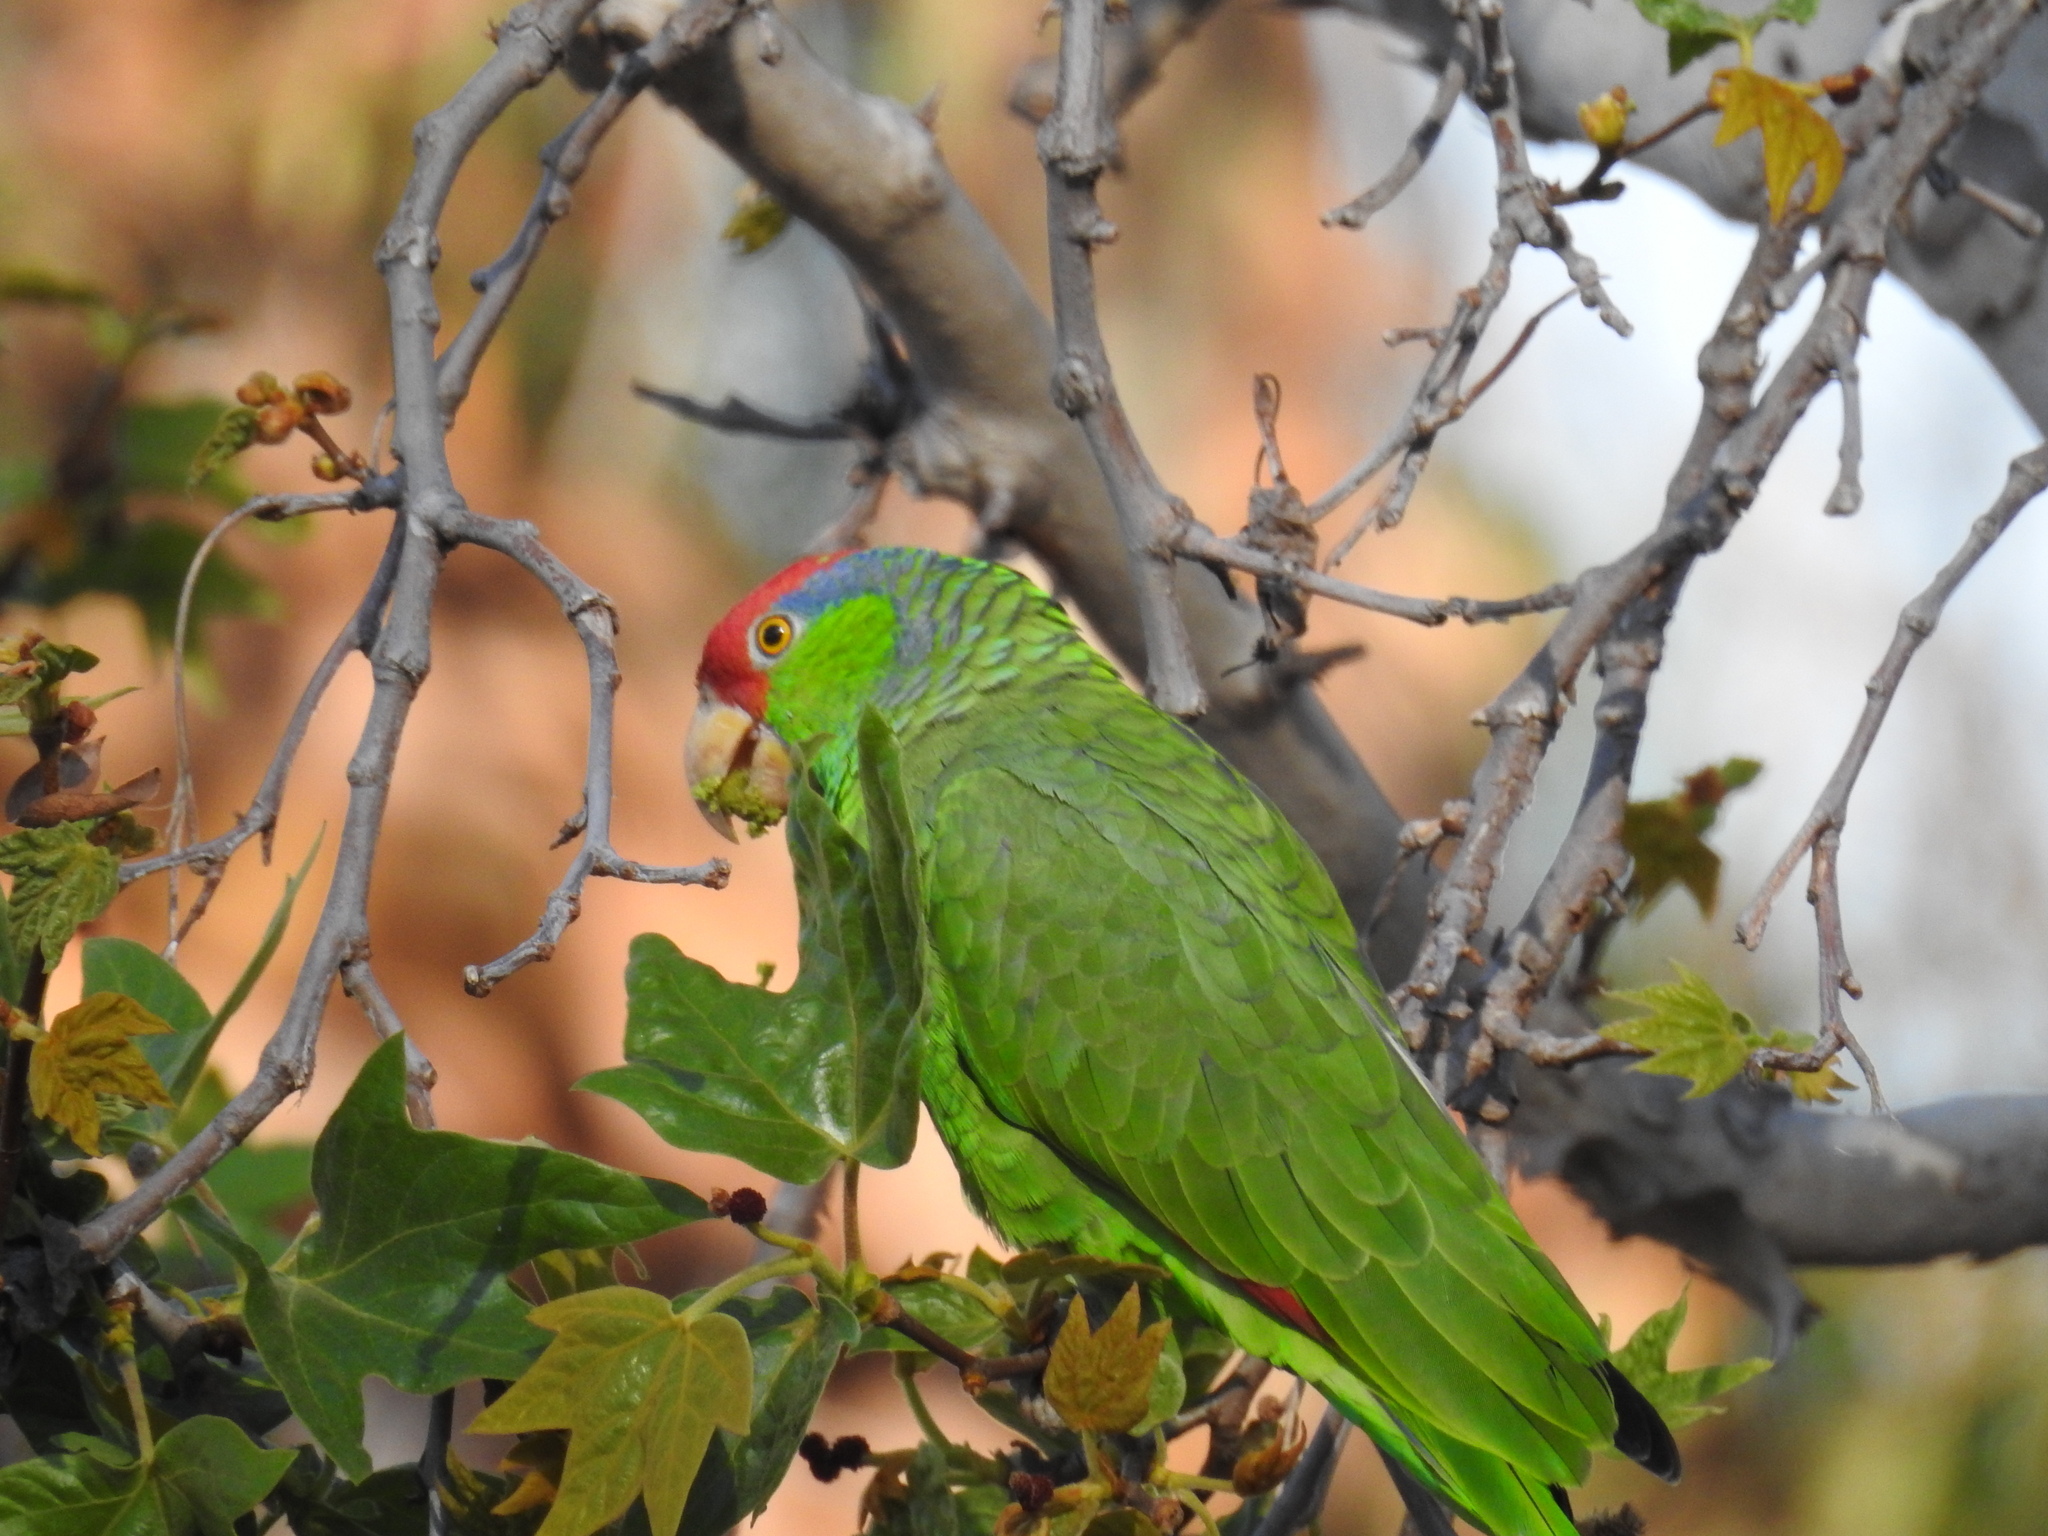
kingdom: Animalia
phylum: Chordata
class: Aves
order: Psittaciformes
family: Psittacidae
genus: Amazona
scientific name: Amazona viridigenalis
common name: Red-crowned amazon
